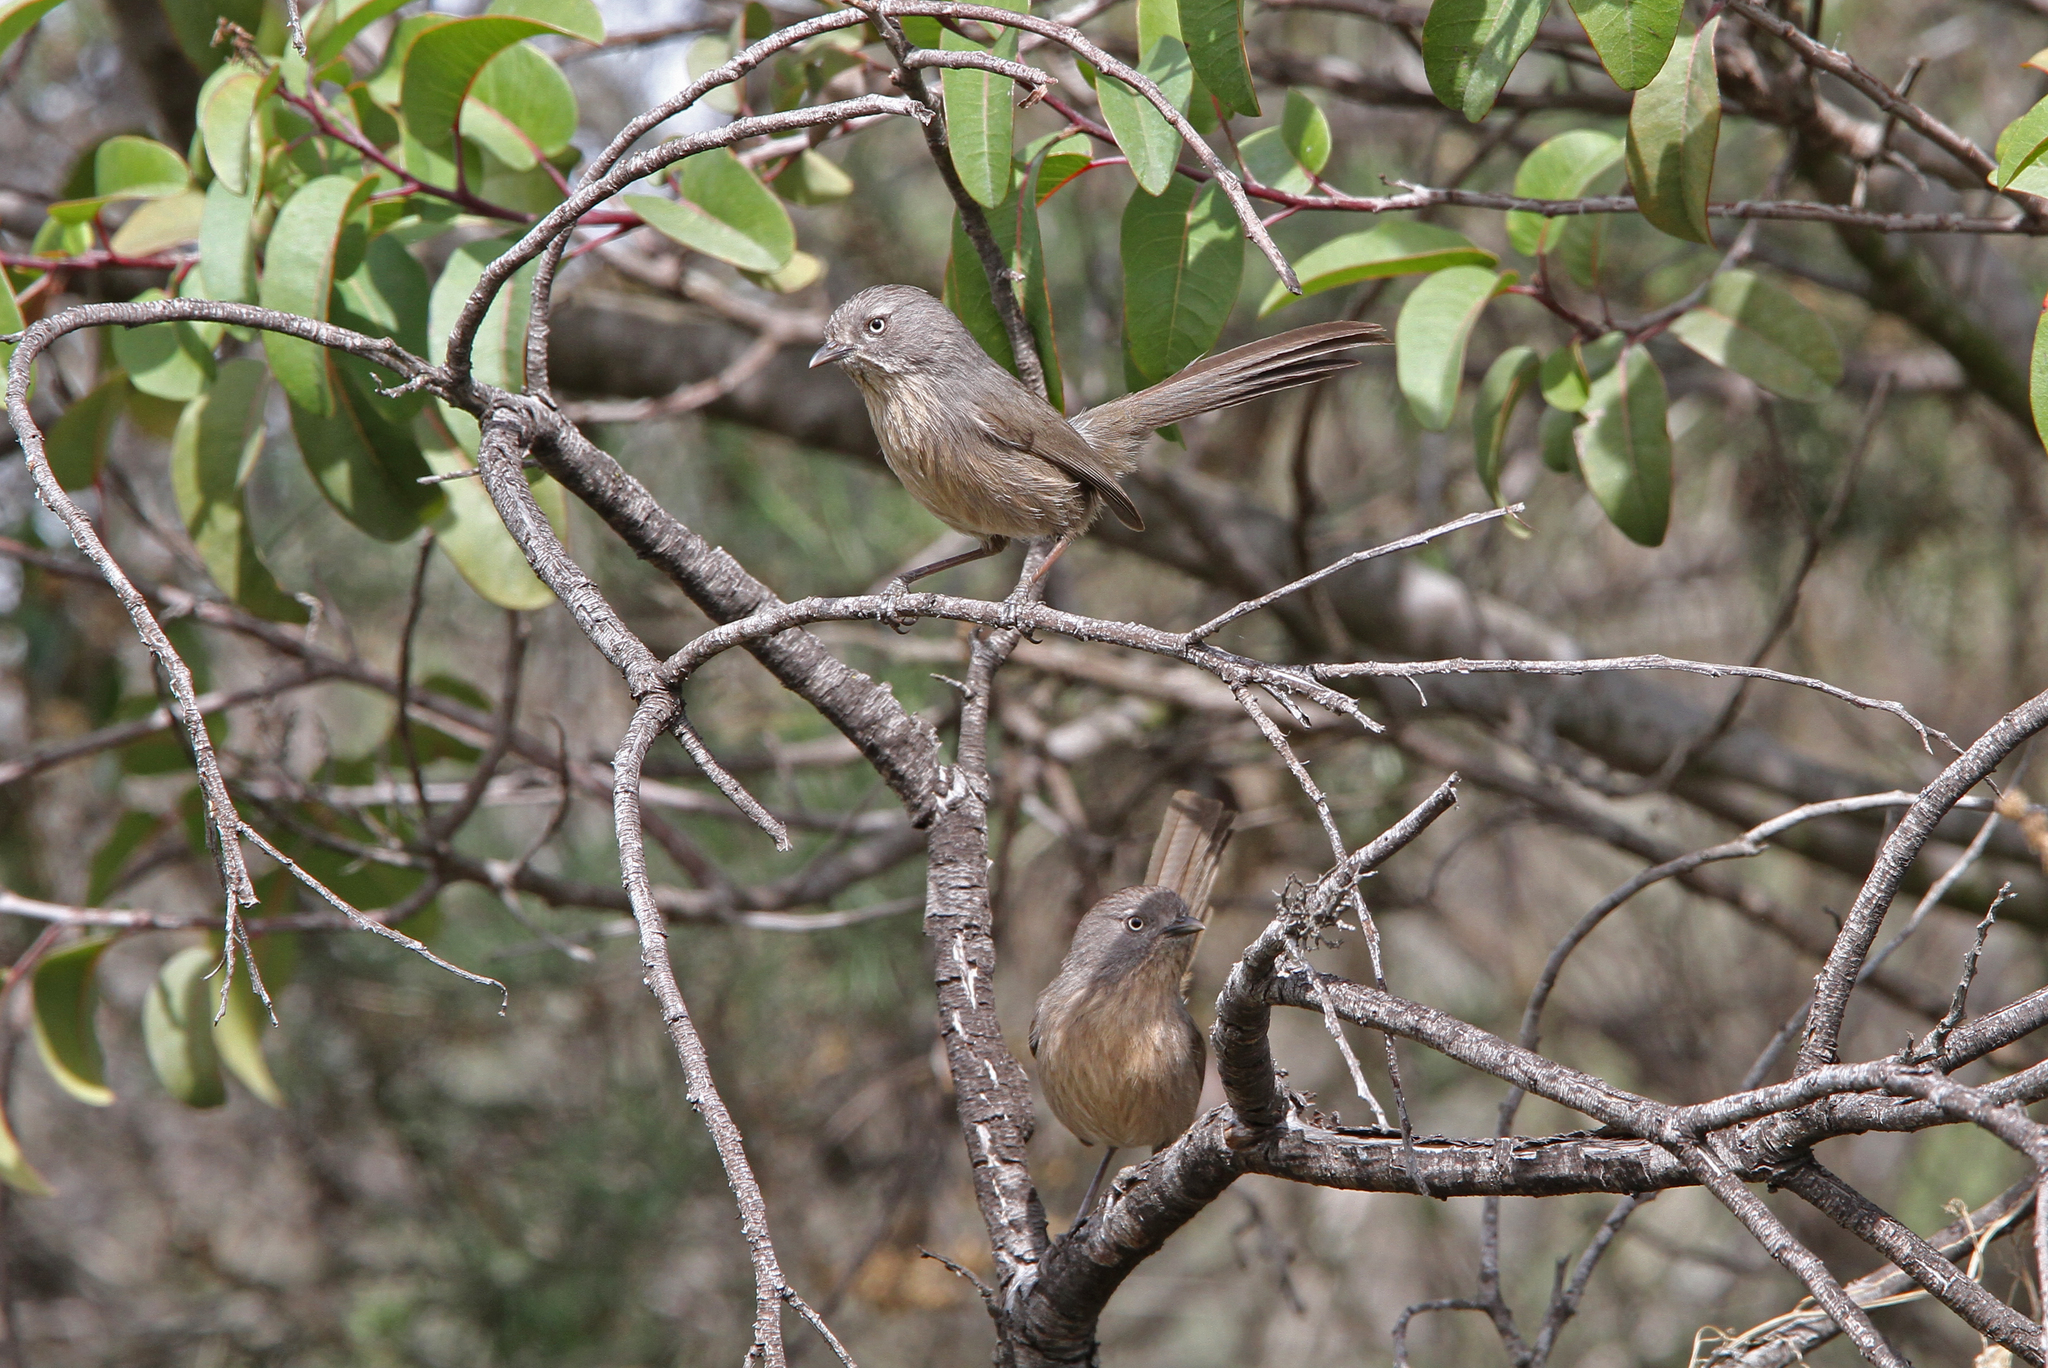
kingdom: Animalia
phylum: Chordata
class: Aves
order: Passeriformes
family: Sylviidae
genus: Chamaea
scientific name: Chamaea fasciata
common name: Wrentit
